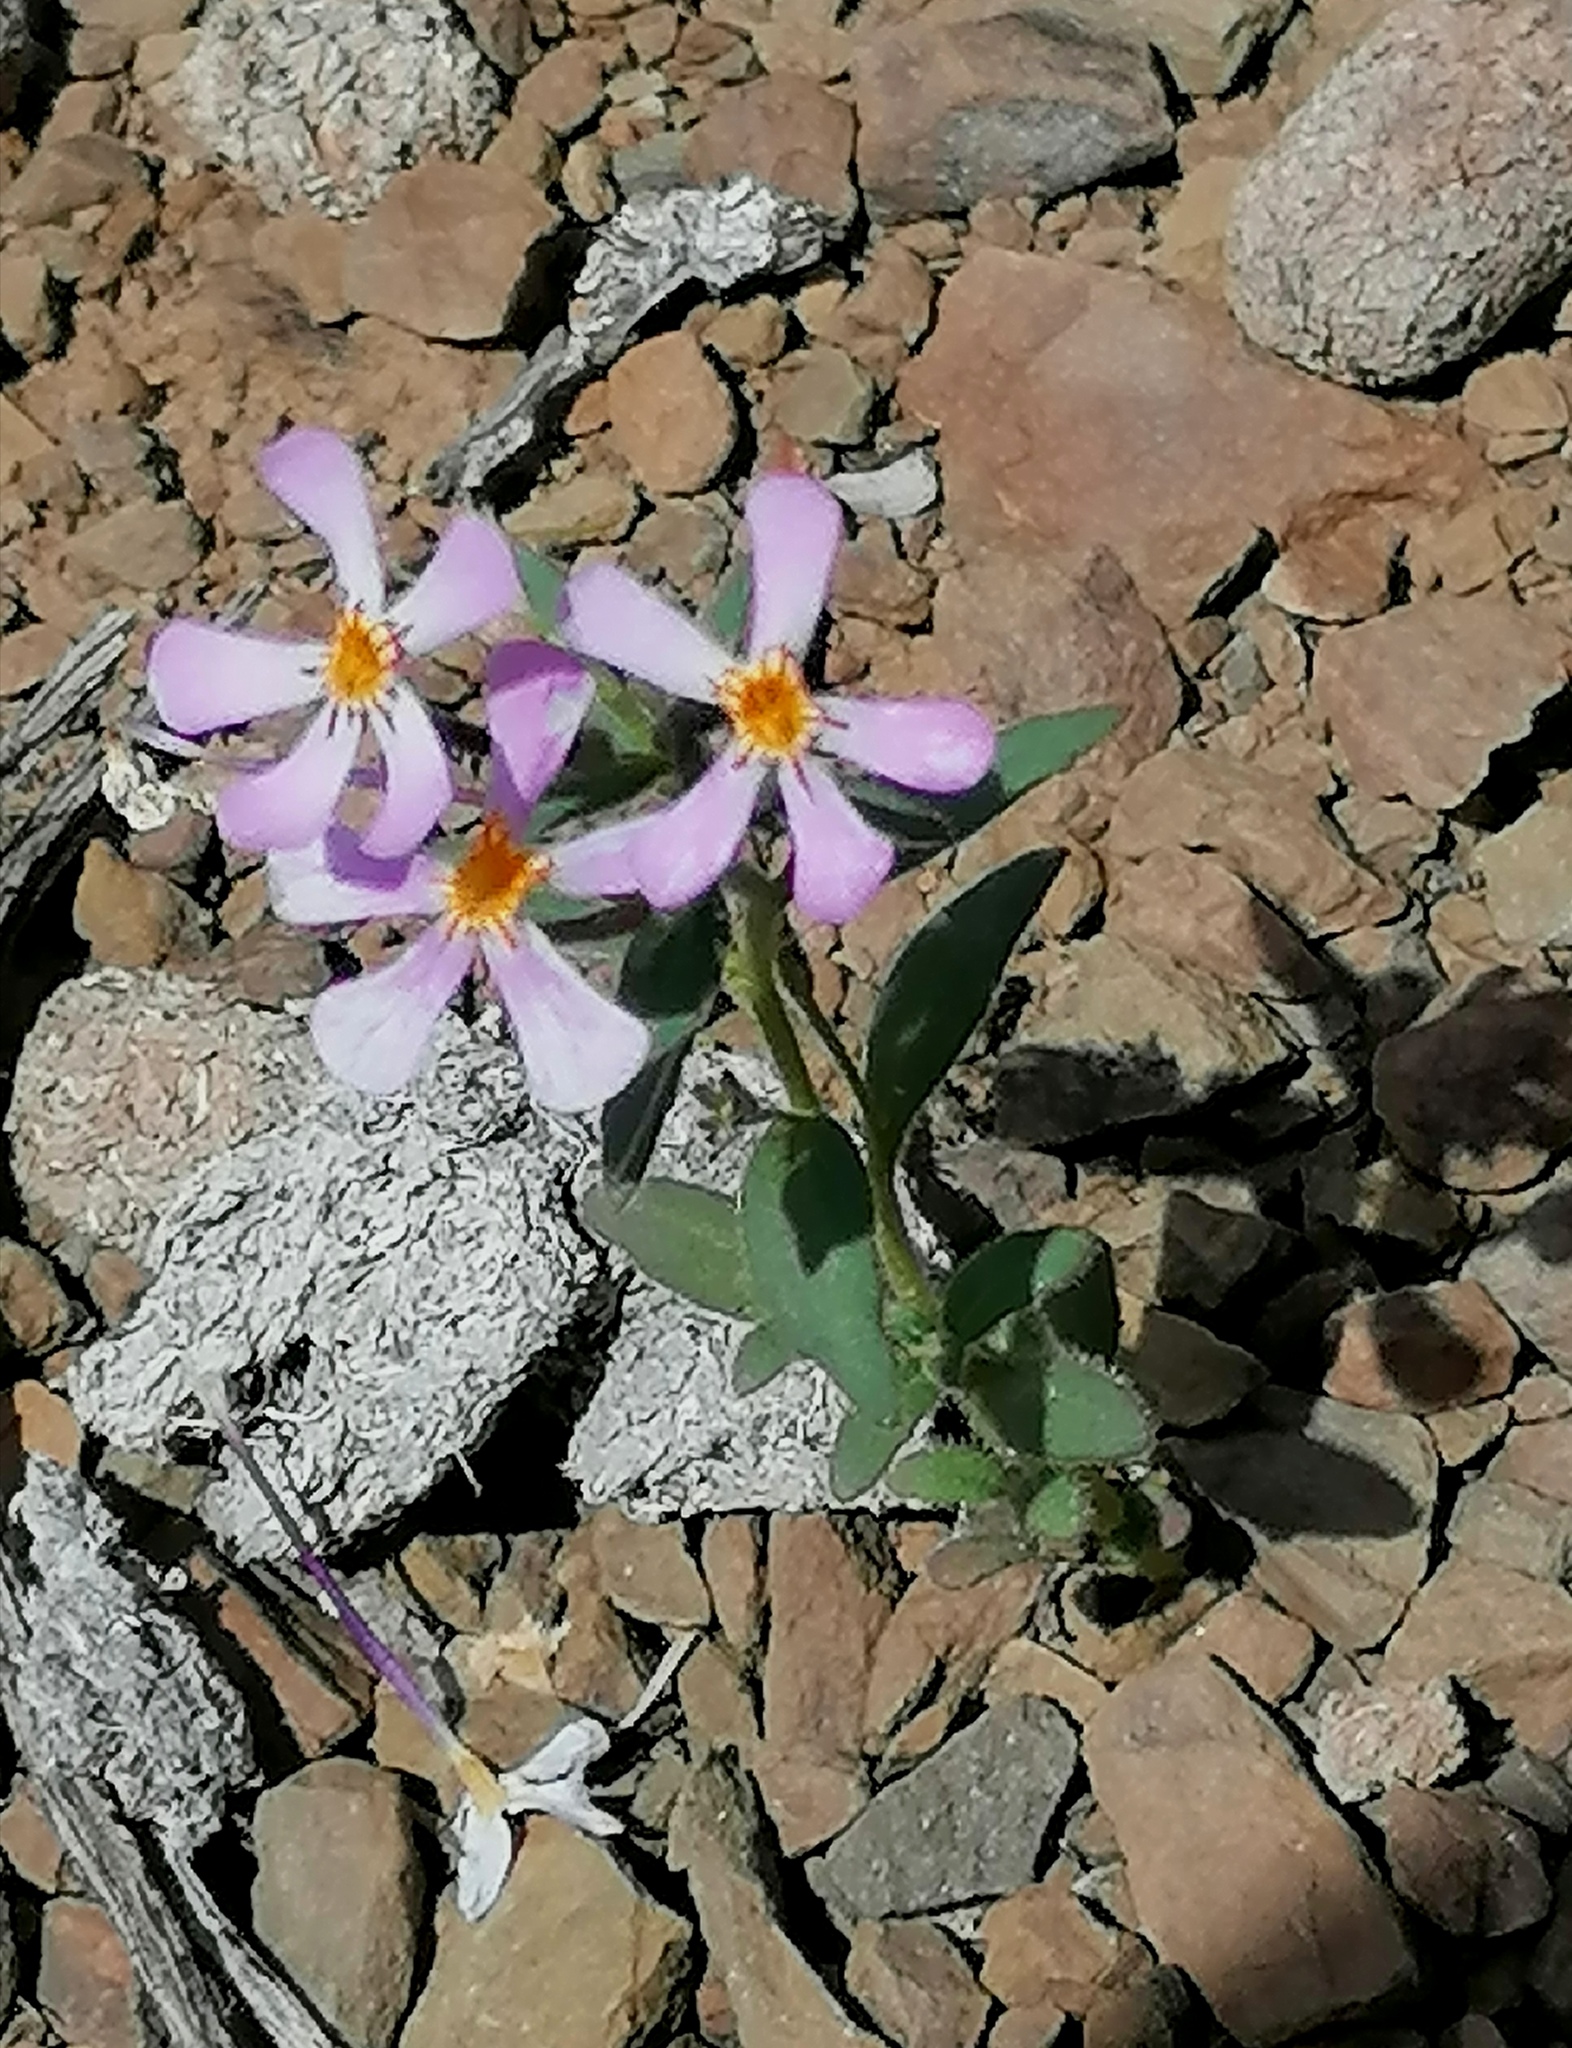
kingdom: Plantae
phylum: Tracheophyta
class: Magnoliopsida
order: Lamiales
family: Scrophulariaceae
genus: Zaluzianskya
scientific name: Zaluzianskya violacea
